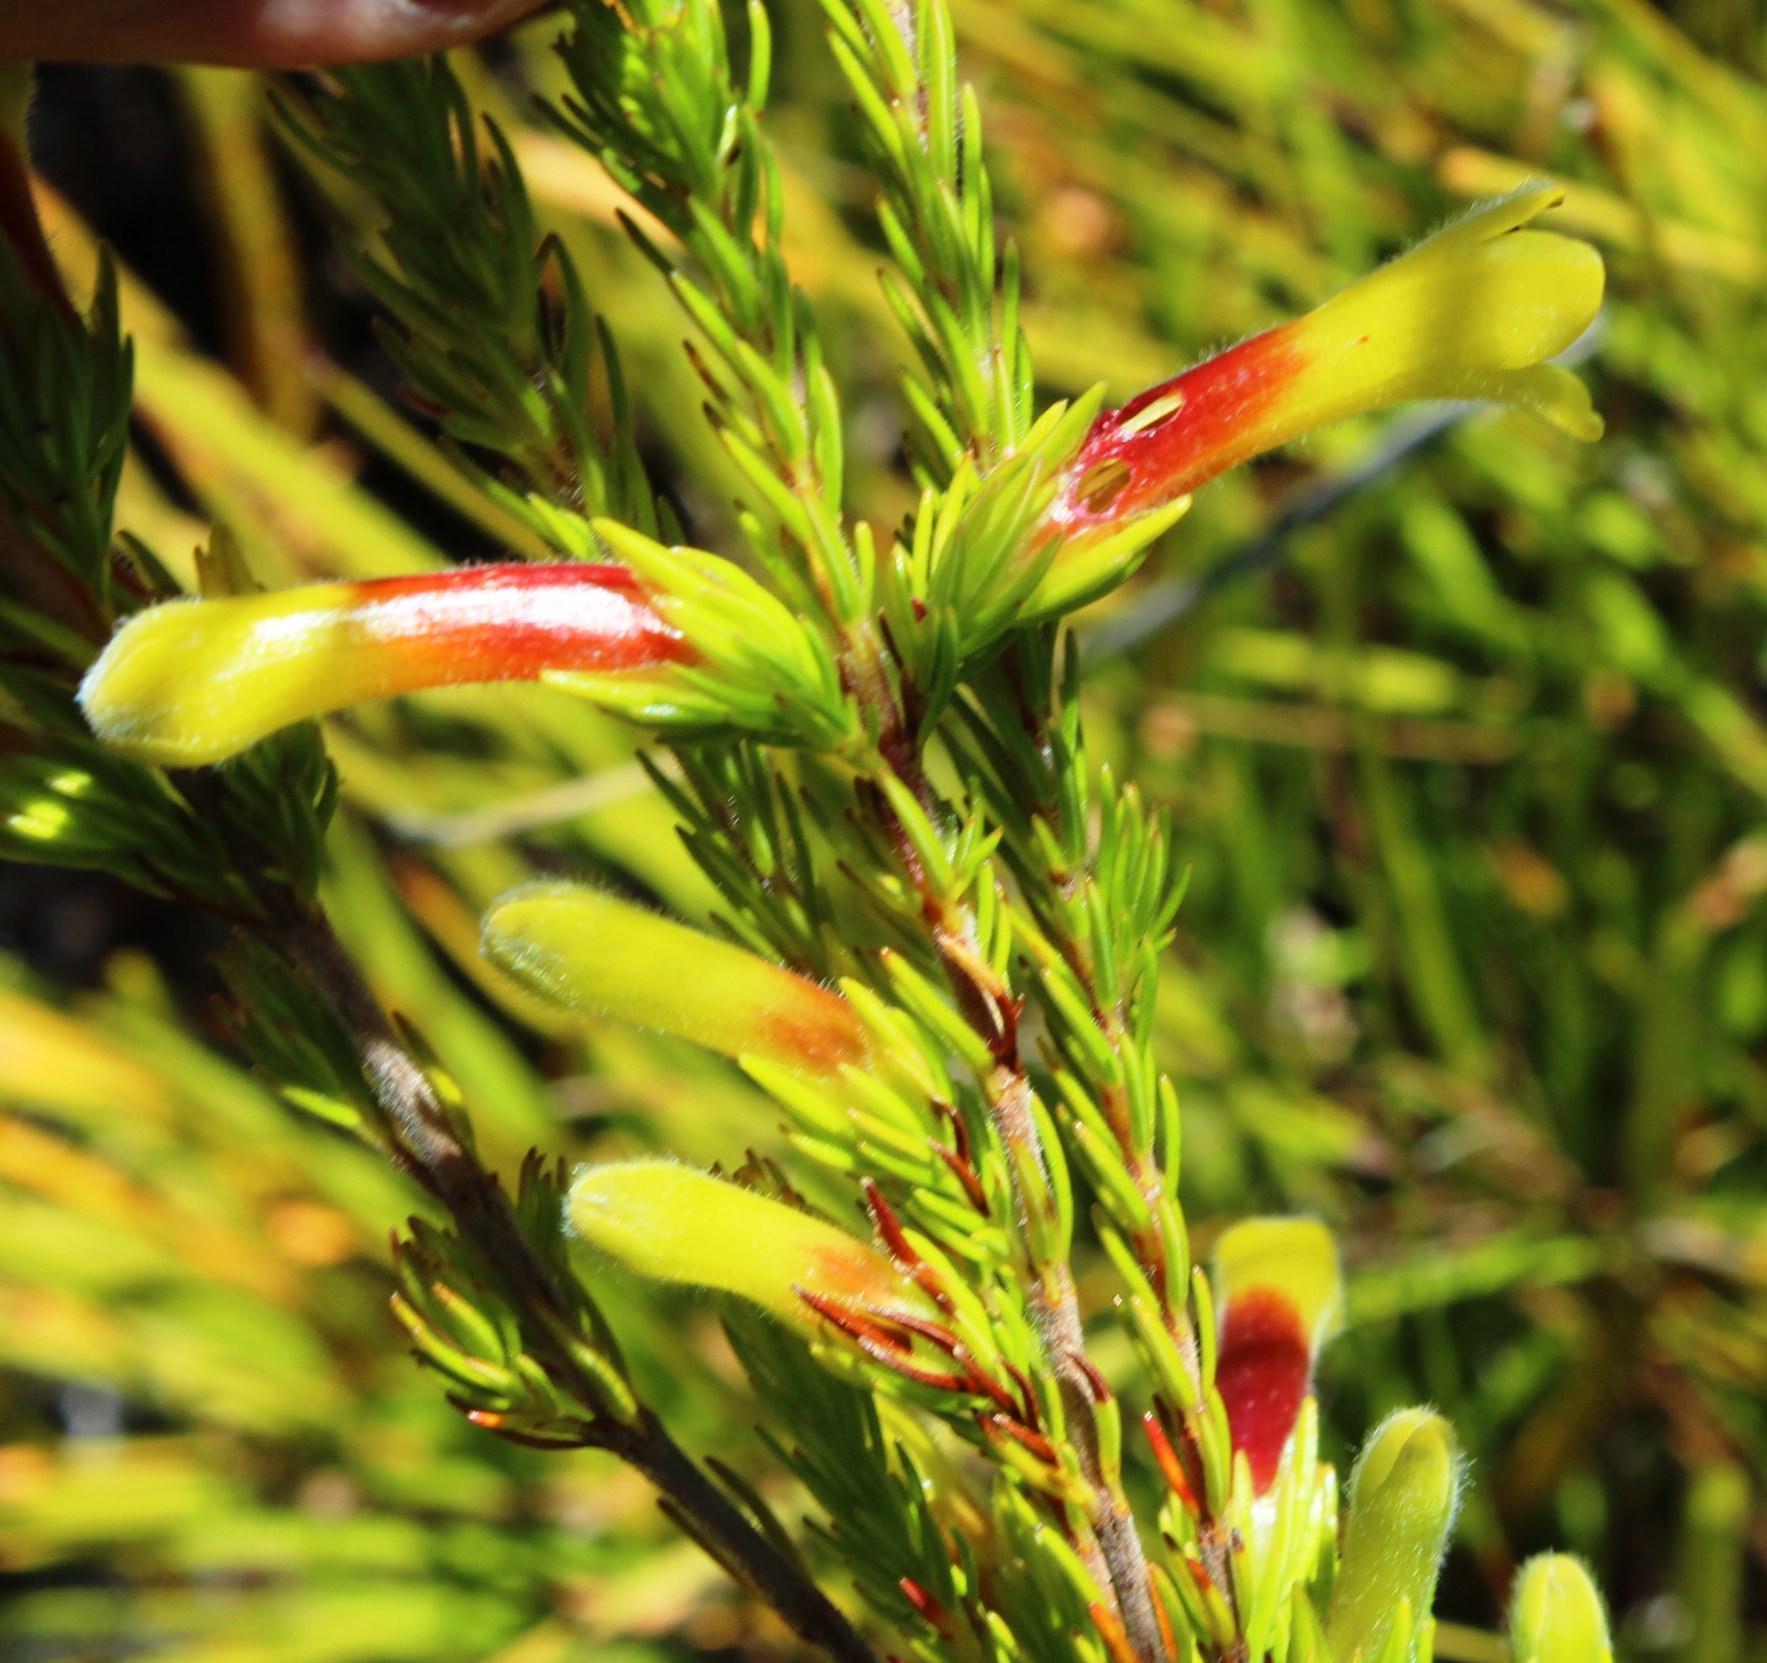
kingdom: Plantae
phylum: Tracheophyta
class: Magnoliopsida
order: Ericales
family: Ericaceae
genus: Erica
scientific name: Erica macowanii
